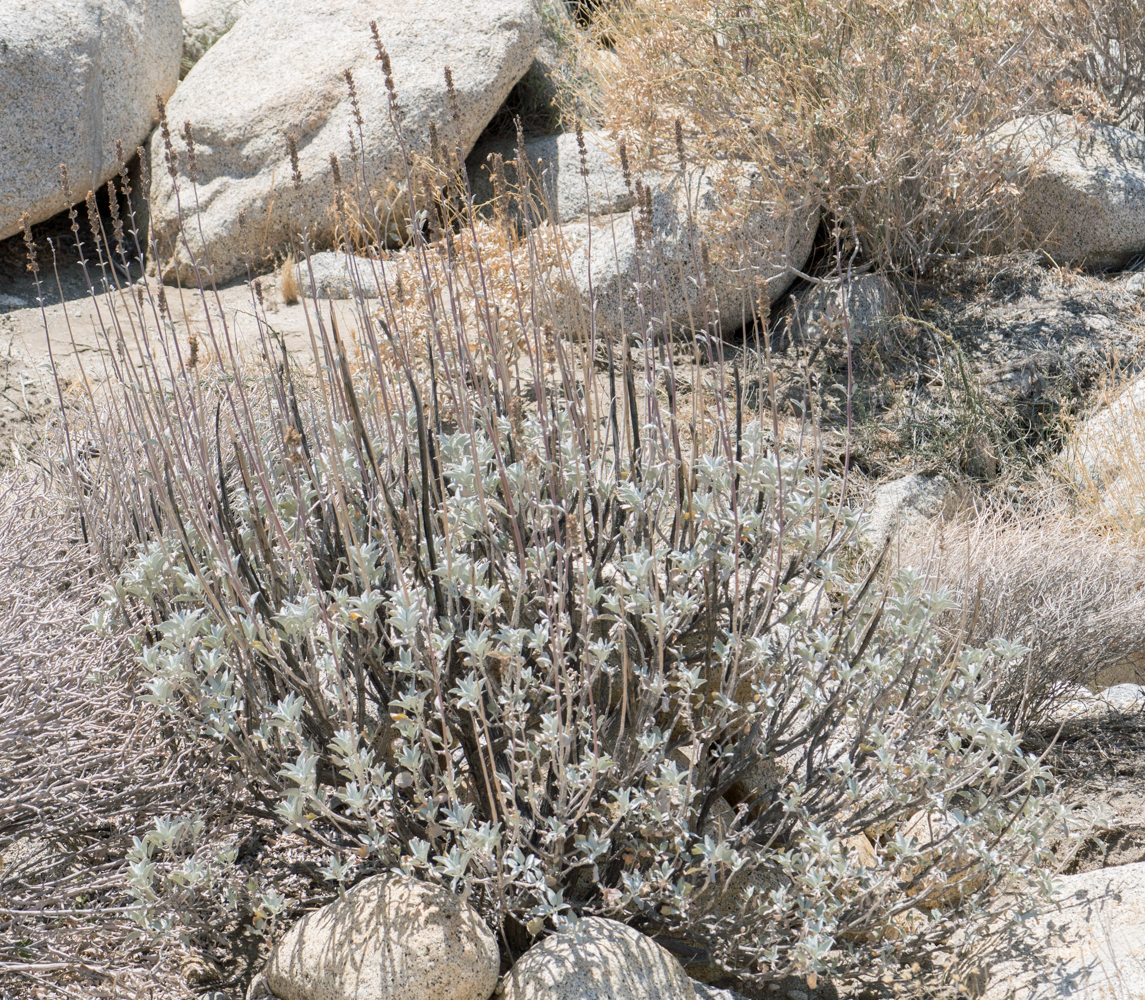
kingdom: Plantae
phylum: Tracheophyta
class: Magnoliopsida
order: Lamiales
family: Lamiaceae
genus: Salvia
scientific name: Salvia apiana
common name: White sage
